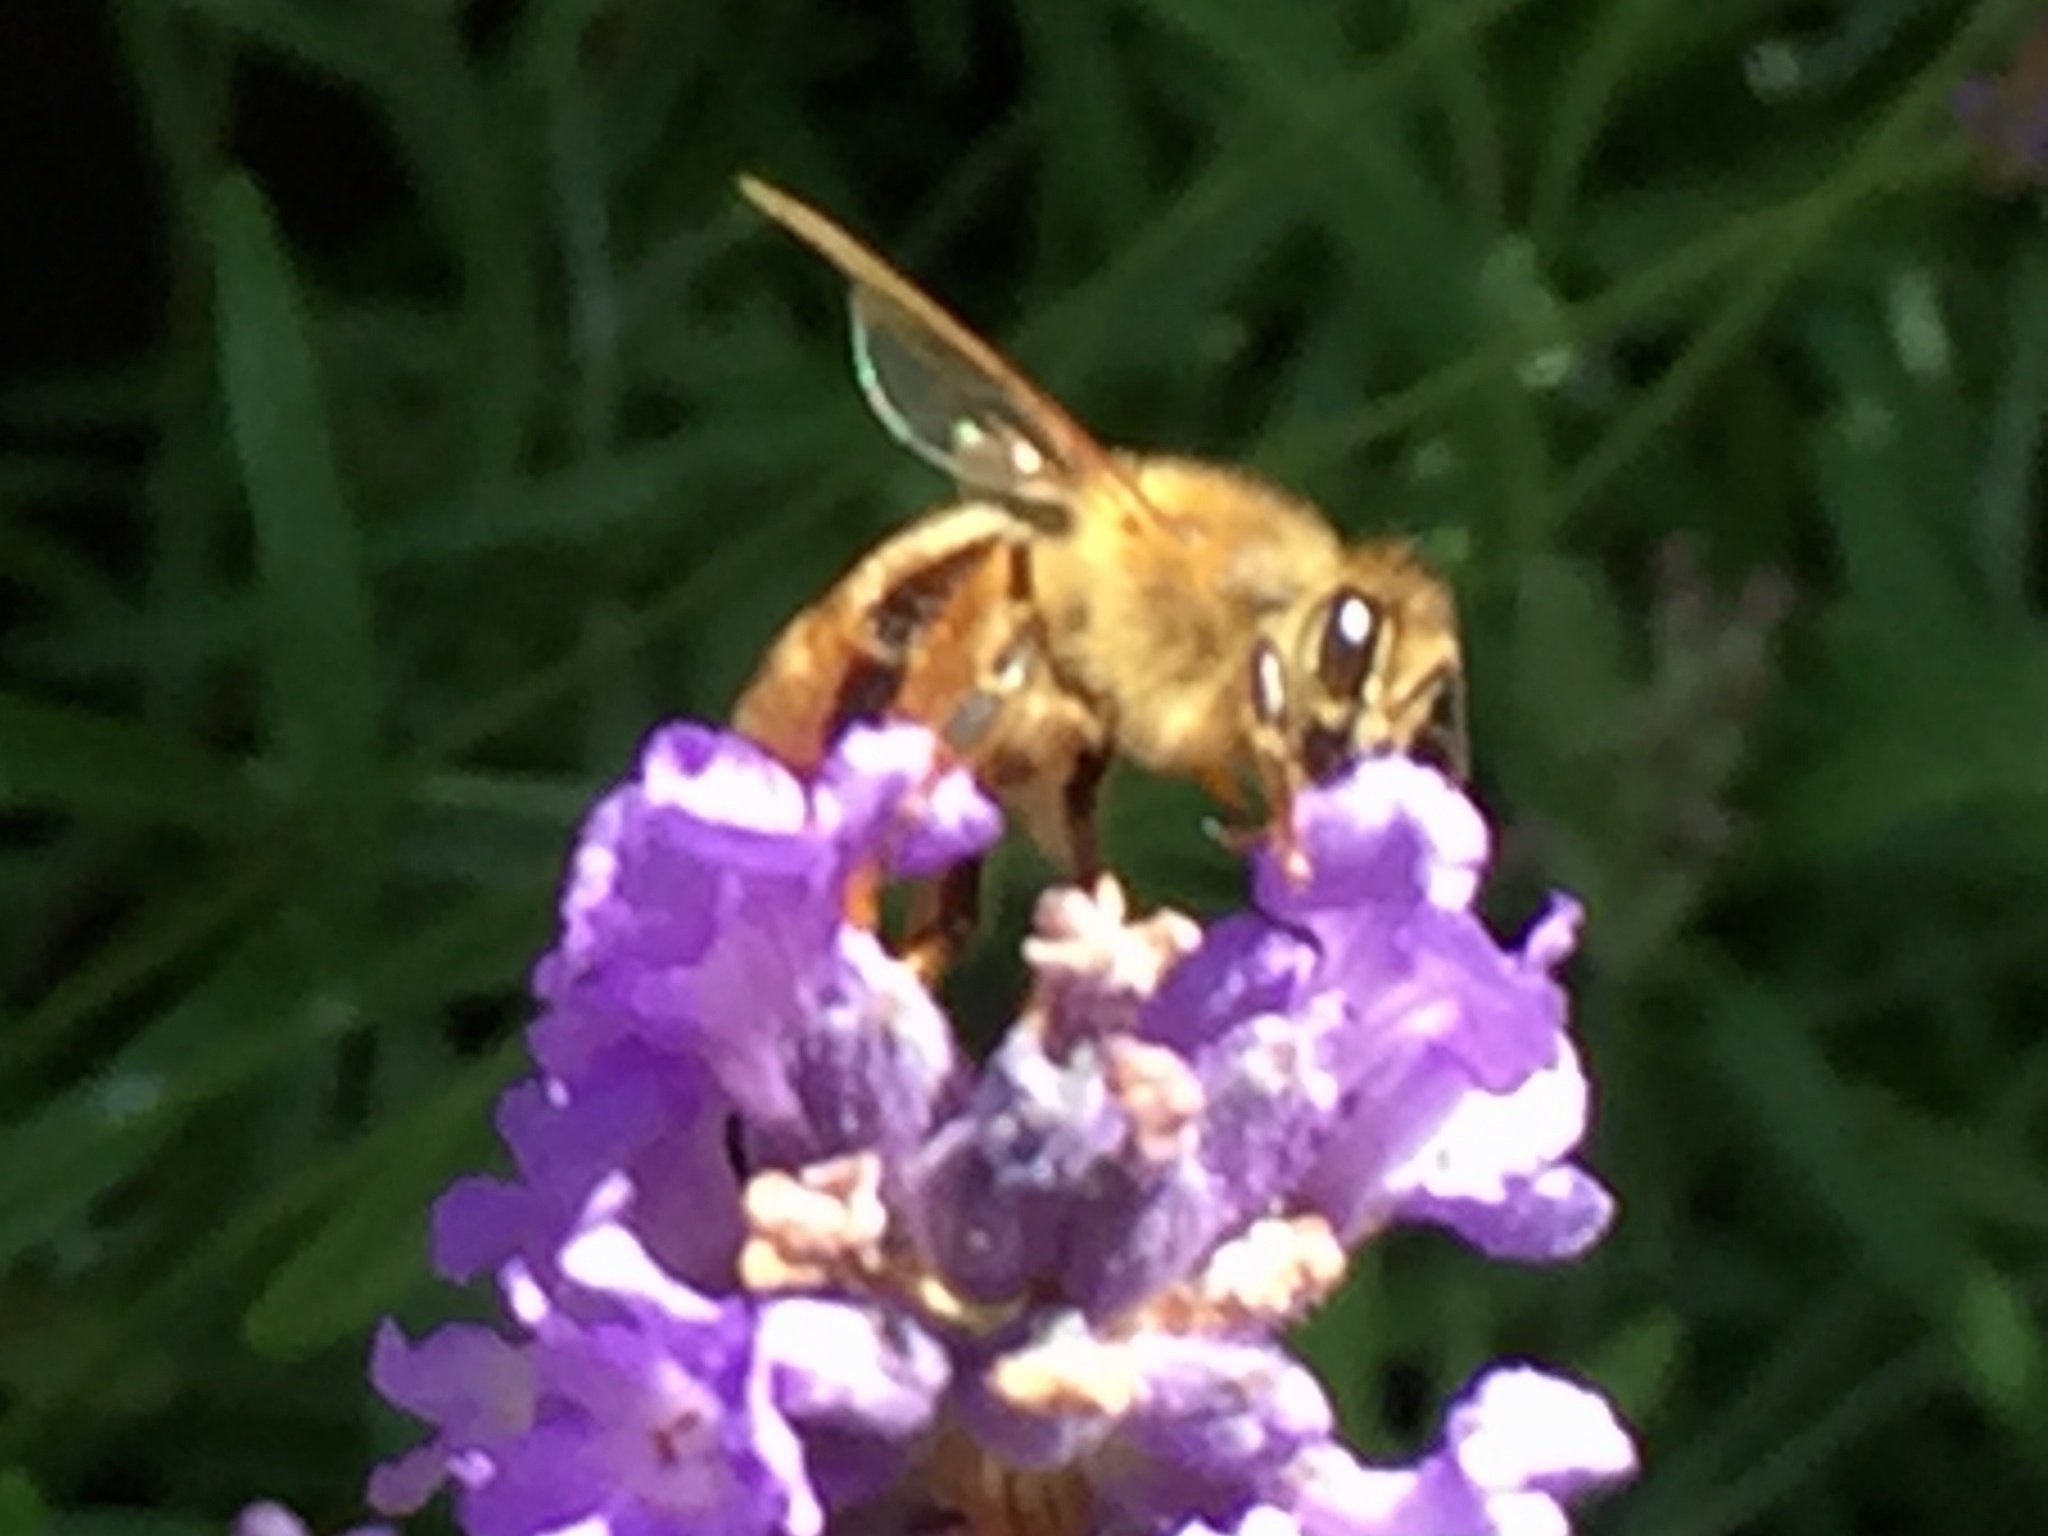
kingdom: Animalia
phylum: Arthropoda
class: Insecta
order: Hymenoptera
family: Apidae
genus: Apis
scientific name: Apis mellifera
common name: Honey bee
